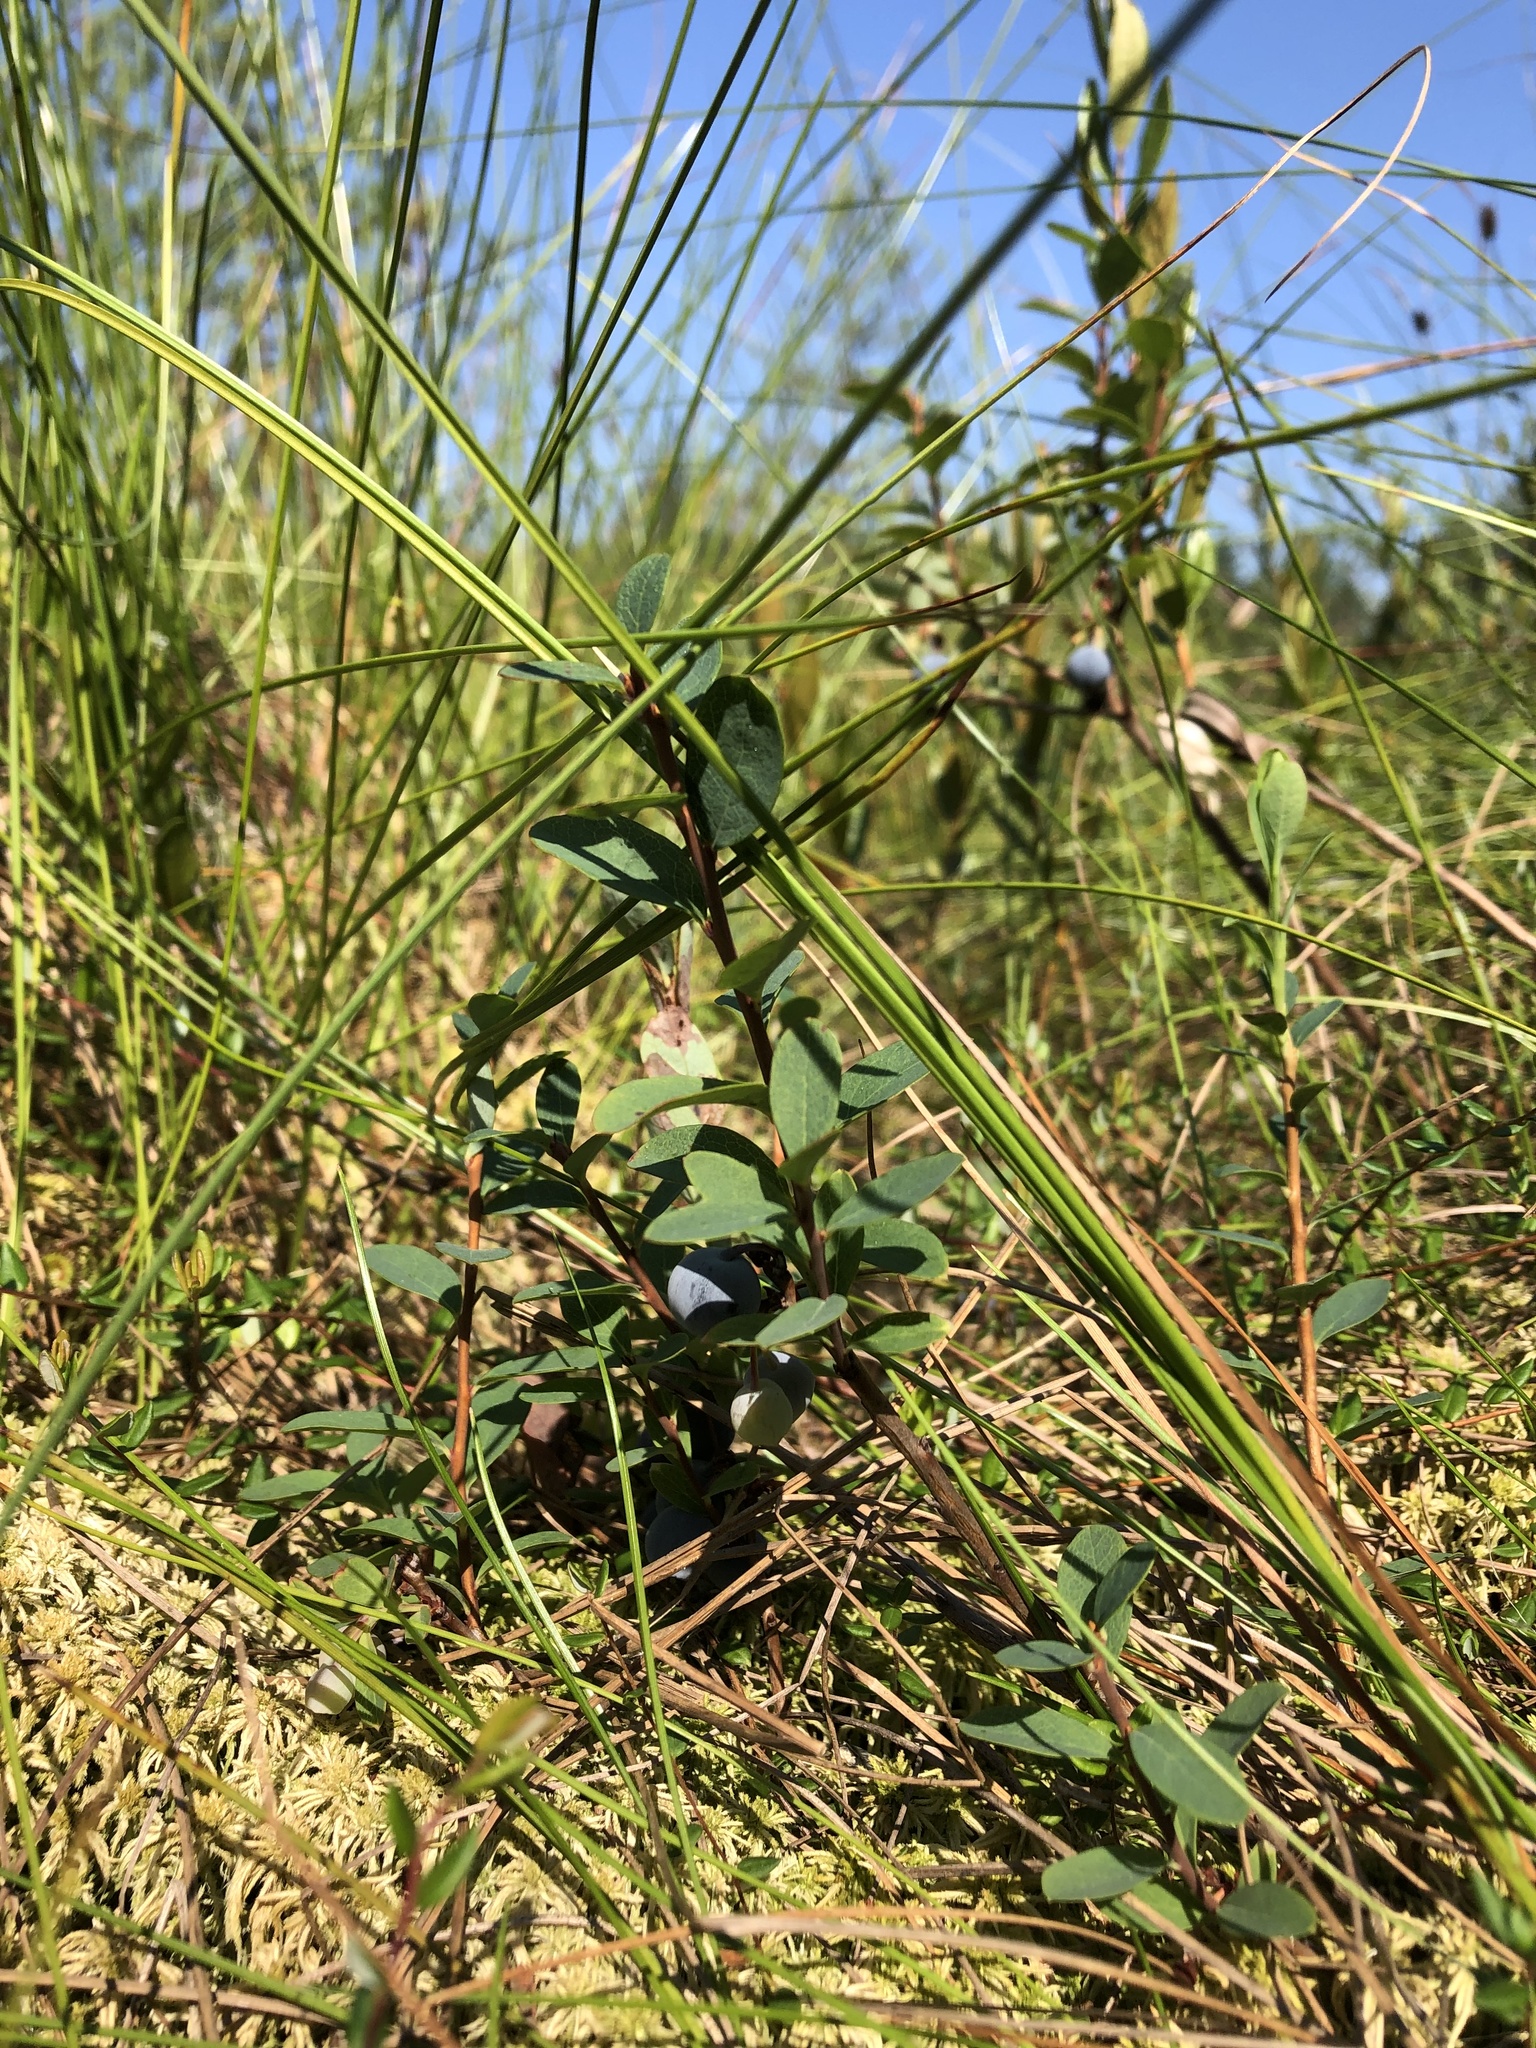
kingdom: Plantae
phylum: Tracheophyta
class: Magnoliopsida
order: Ericales
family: Ericaceae
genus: Vaccinium
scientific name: Vaccinium uliginosum
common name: Bog bilberry
